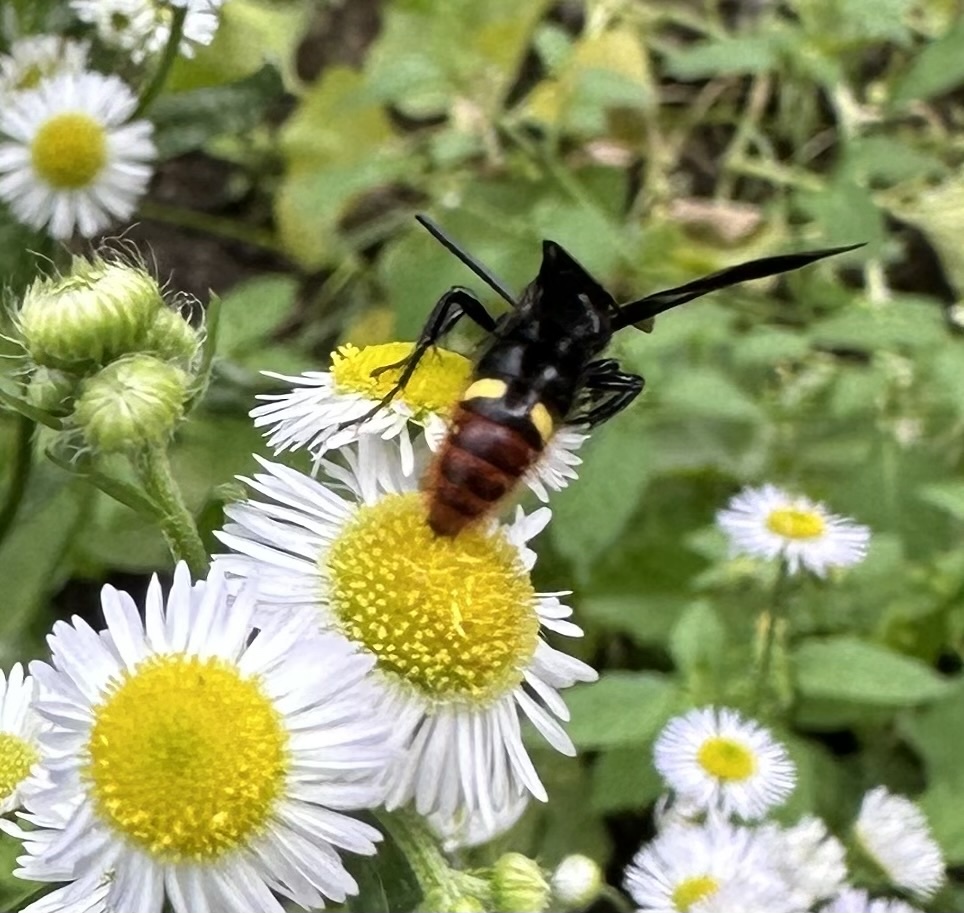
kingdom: Animalia
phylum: Arthropoda
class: Insecta
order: Hymenoptera
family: Scoliidae
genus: Scolia
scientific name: Scolia dubia
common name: Blue-winged scoliid wasp
